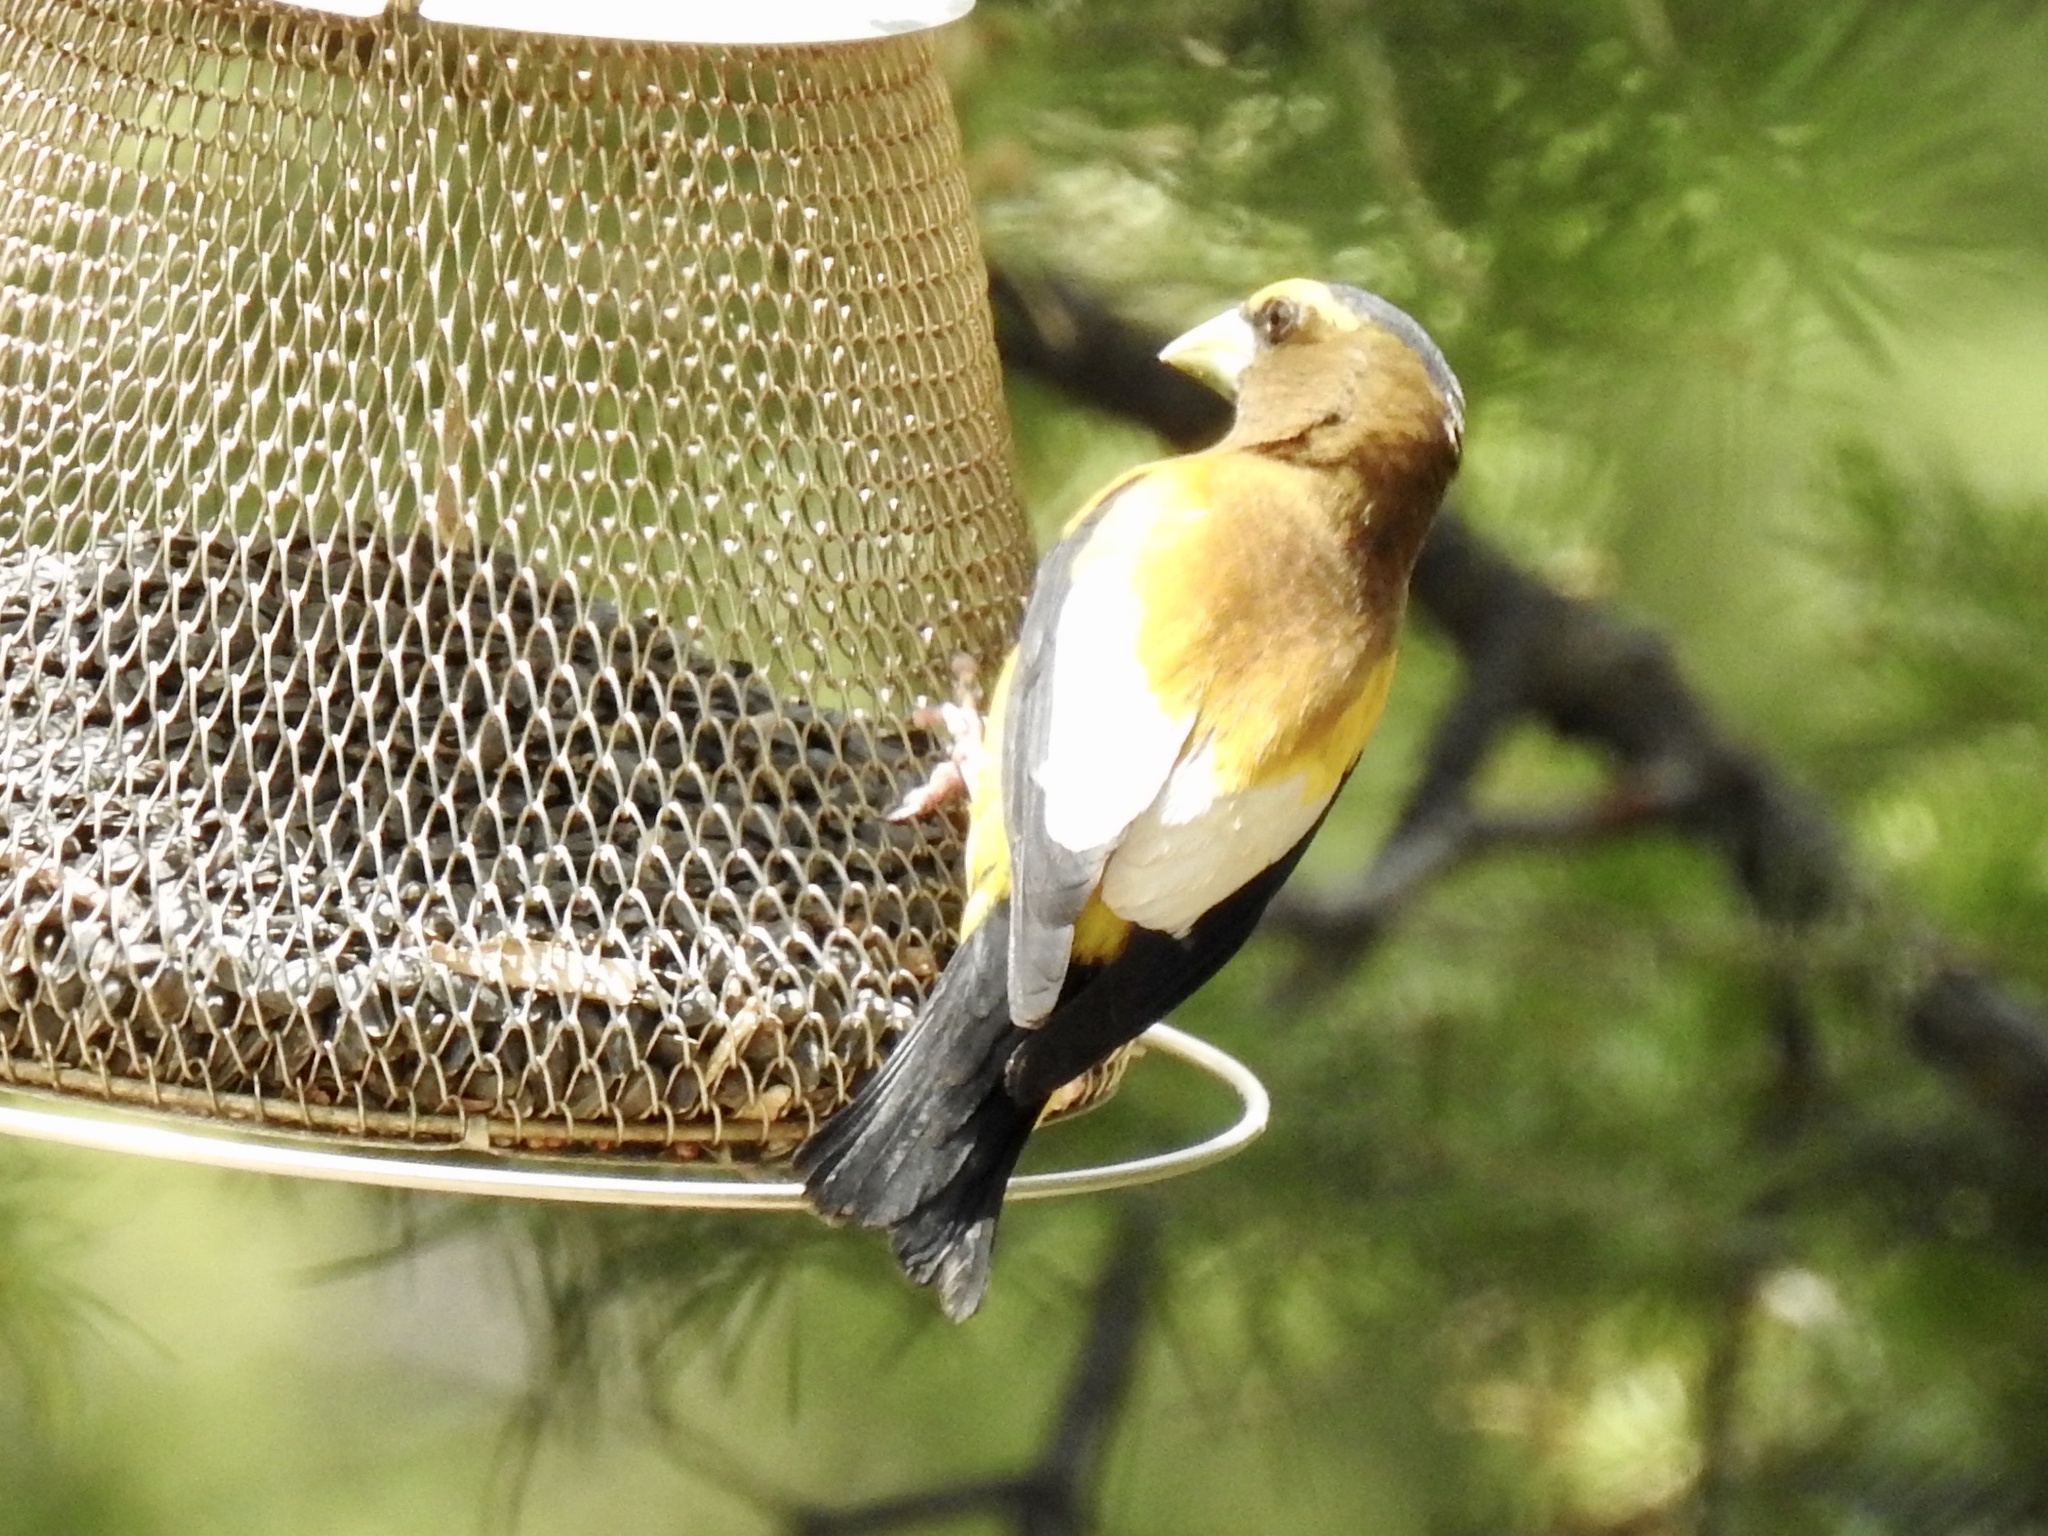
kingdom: Animalia
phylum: Chordata
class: Aves
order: Passeriformes
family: Fringillidae
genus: Hesperiphona
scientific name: Hesperiphona vespertina
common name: Evening grosbeak
